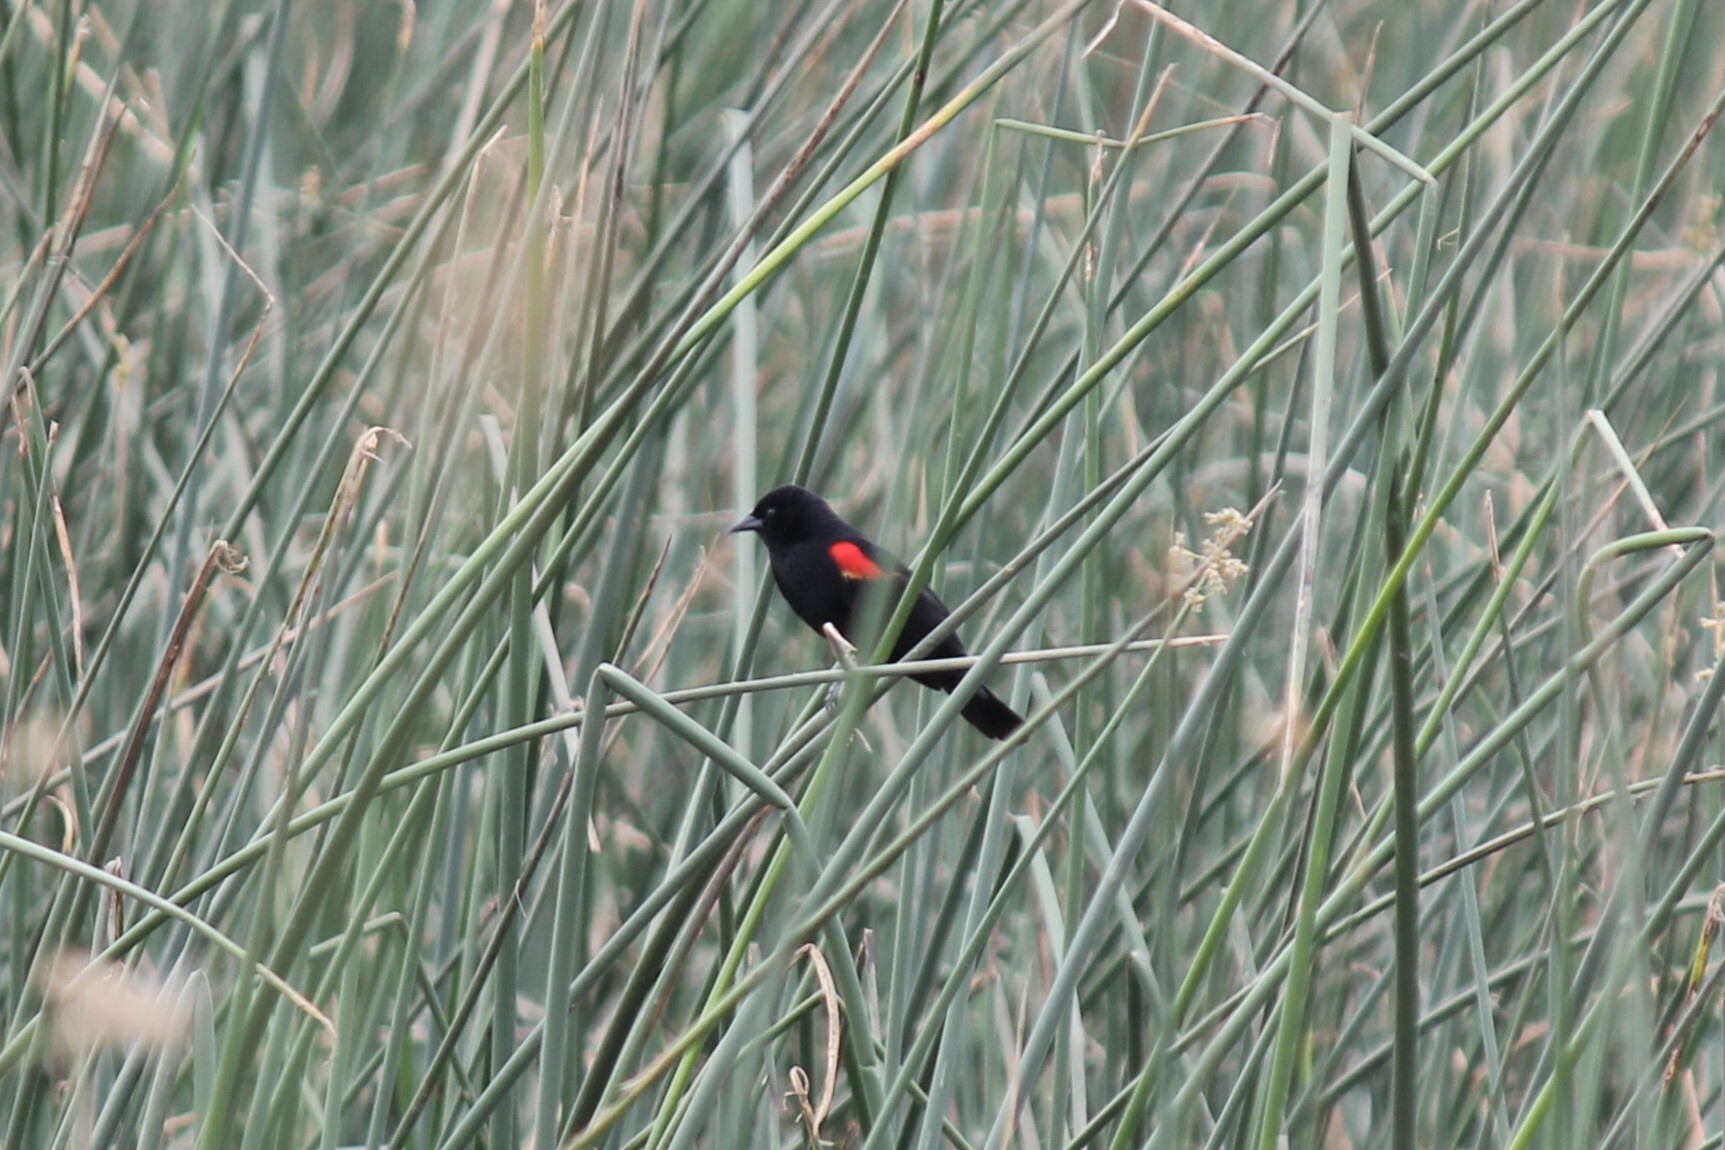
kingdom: Animalia
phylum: Chordata
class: Aves
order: Passeriformes
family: Icteridae
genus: Agelaius
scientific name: Agelaius phoeniceus
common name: Red-winged blackbird
